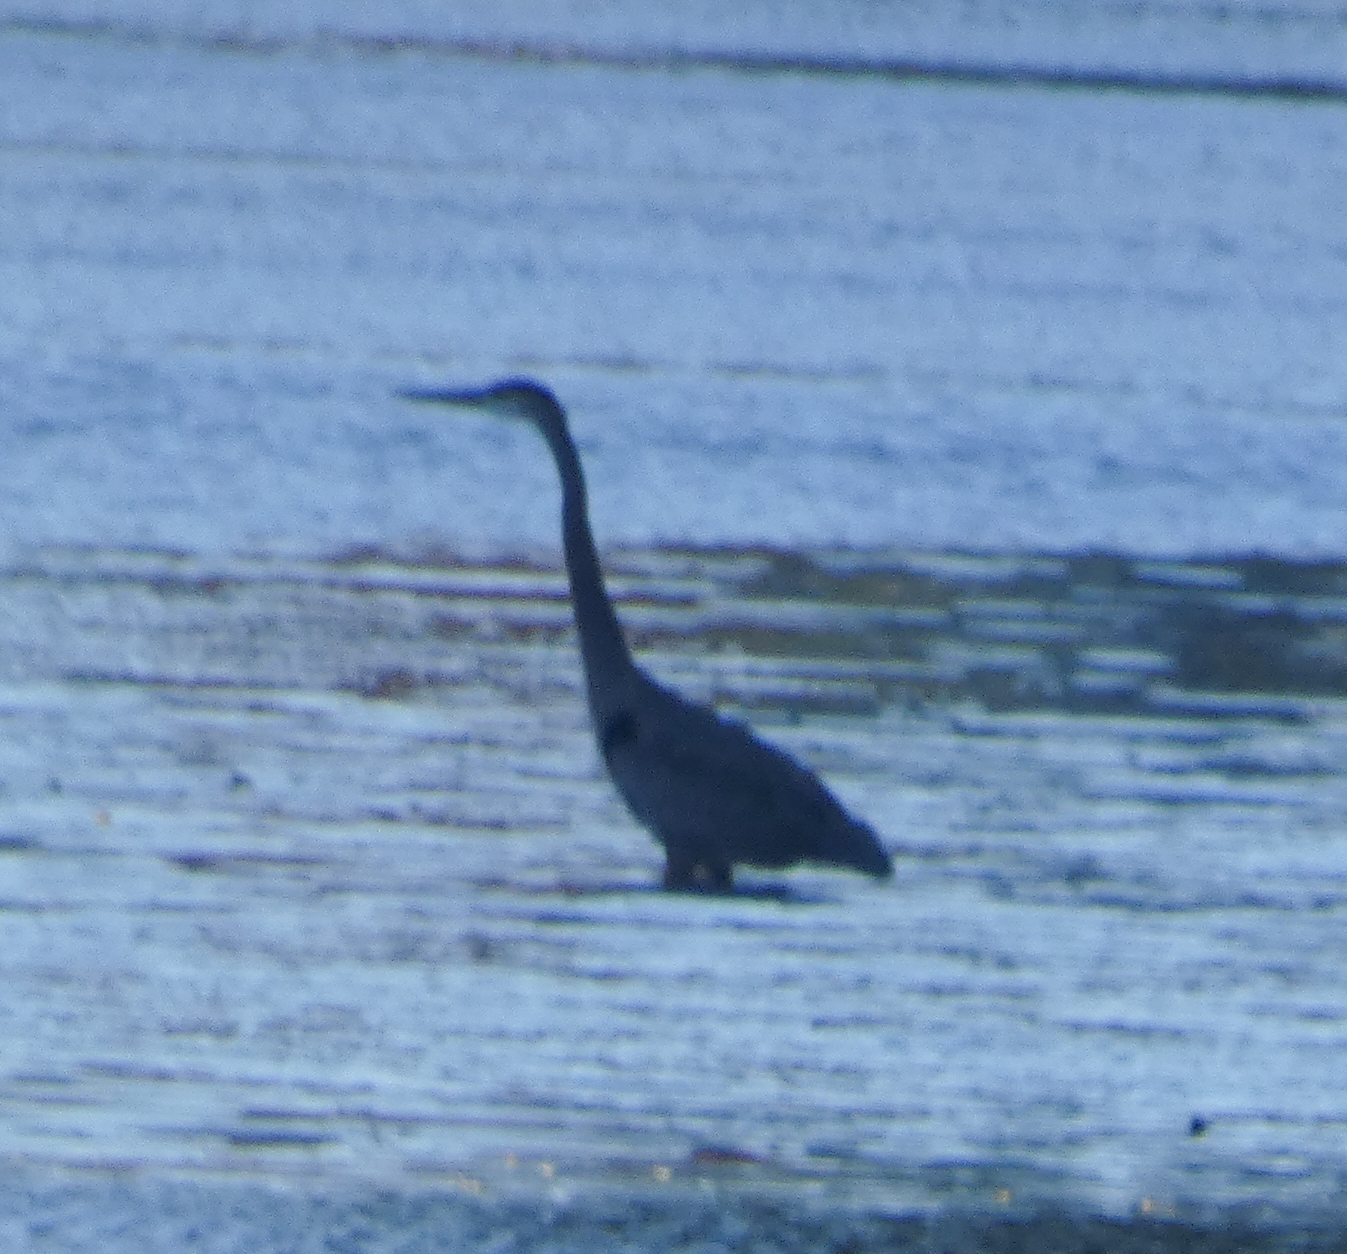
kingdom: Animalia
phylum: Chordata
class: Aves
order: Pelecaniformes
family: Ardeidae
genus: Ardea
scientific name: Ardea herodias
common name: Great blue heron
